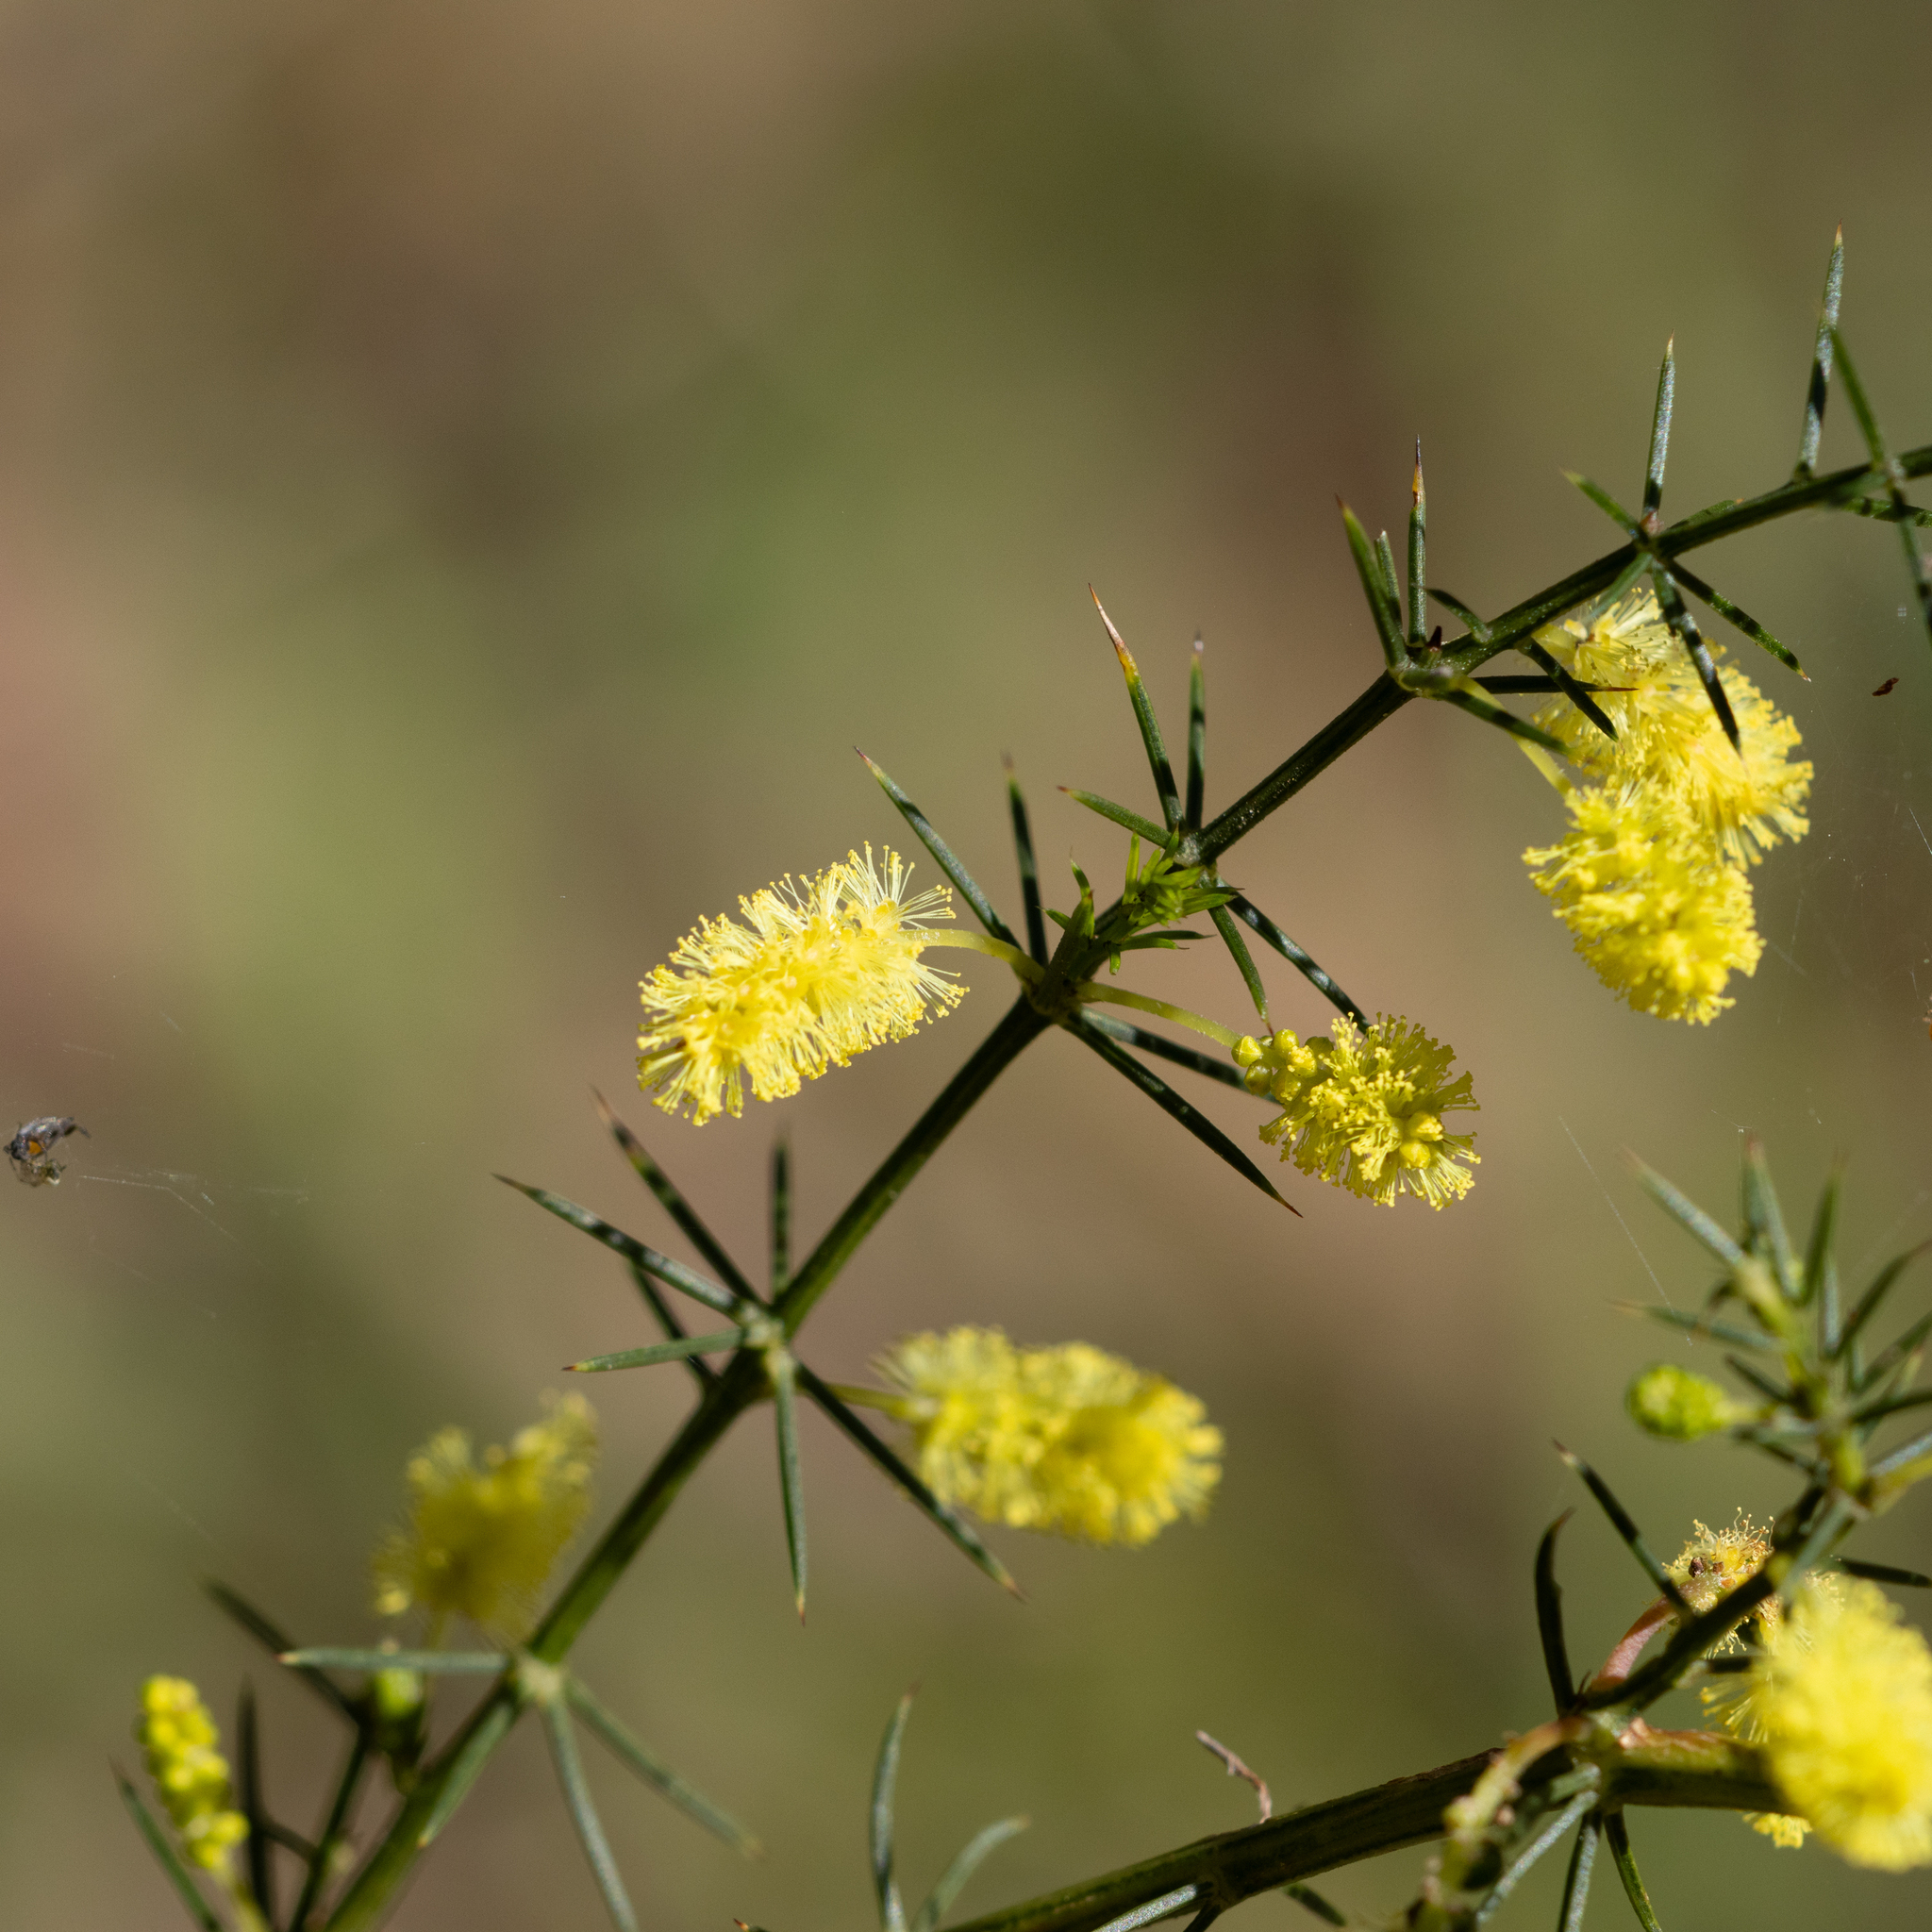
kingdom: Plantae
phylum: Tracheophyta
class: Magnoliopsida
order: Fabales
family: Fabaceae
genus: Acacia
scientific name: Acacia verticillata
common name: Prickly moses
